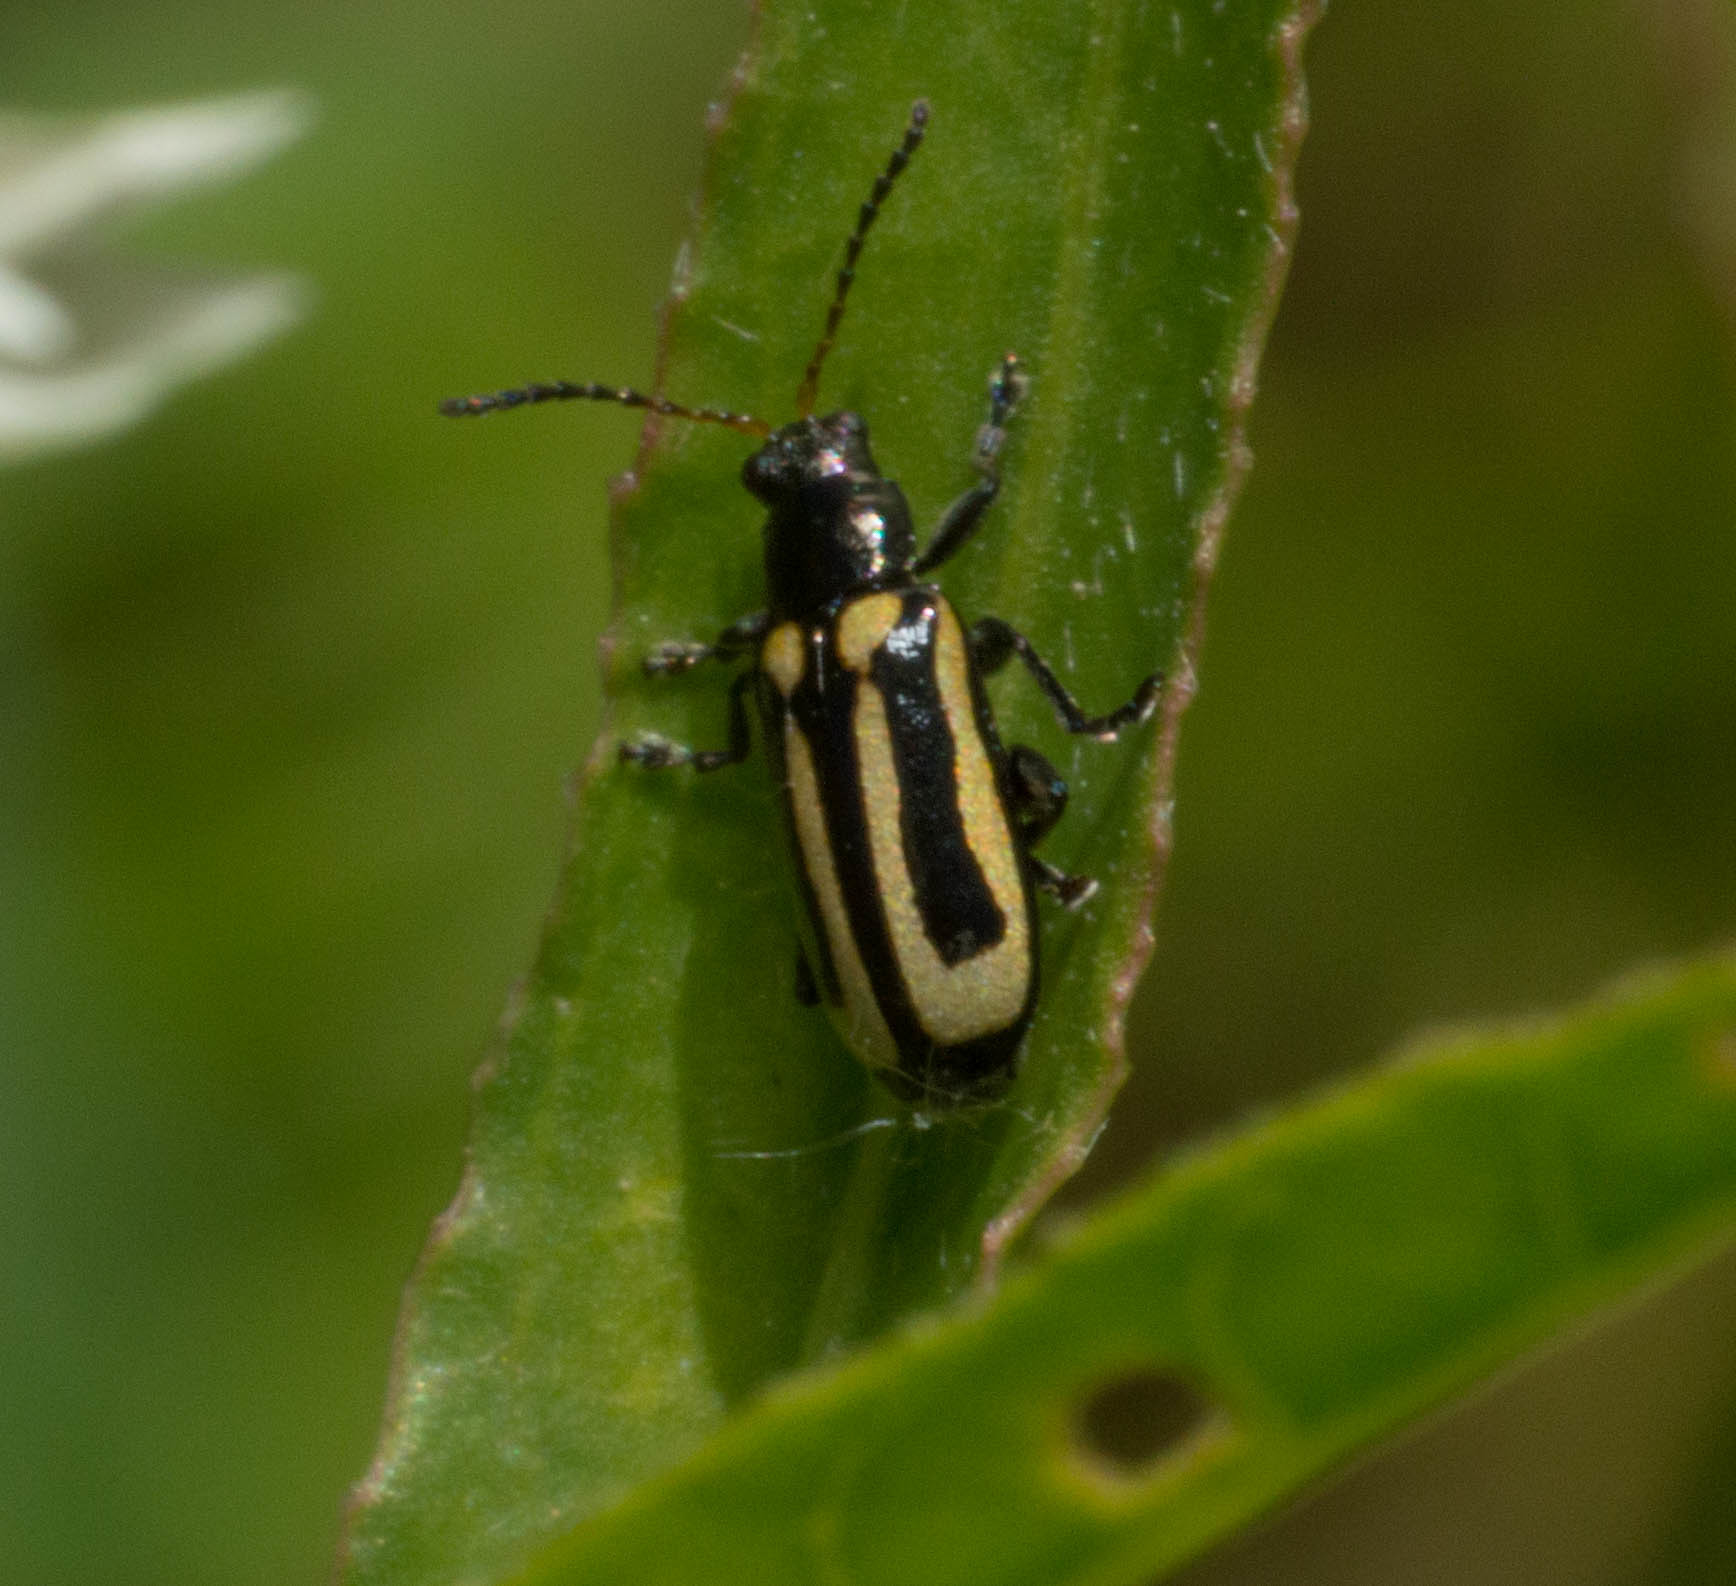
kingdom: Animalia
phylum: Arthropoda
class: Insecta
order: Coleoptera
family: Chrysomelidae
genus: Agasicles
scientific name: Agasicles hygrophila
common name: Alligatorweed flea beetle
